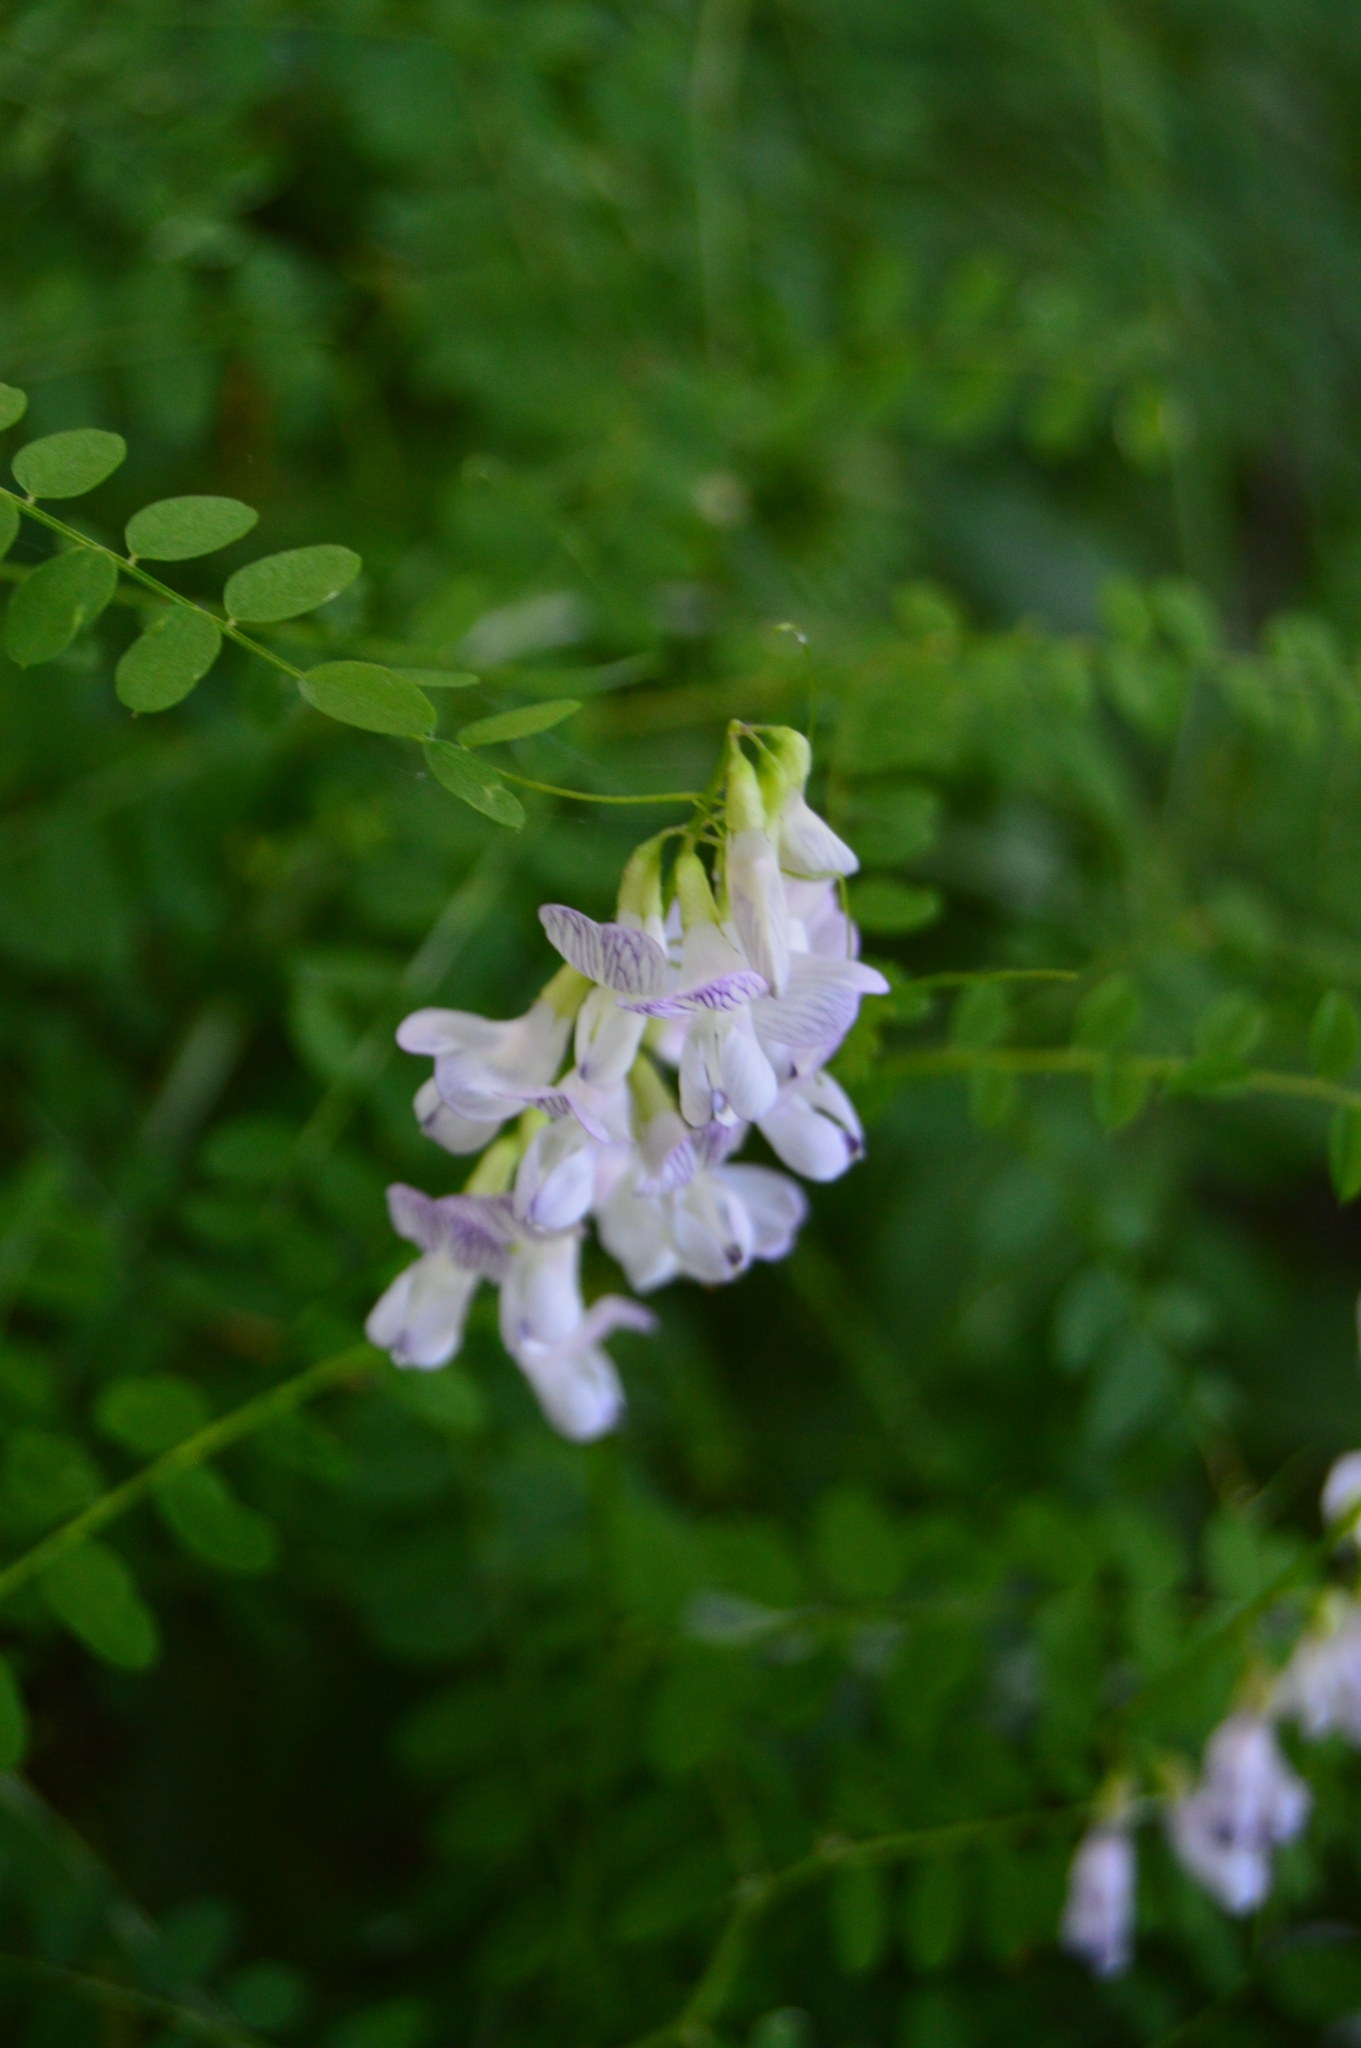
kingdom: Plantae
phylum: Tracheophyta
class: Magnoliopsida
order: Fabales
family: Fabaceae
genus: Vicia
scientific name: Vicia sylvatica
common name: Wood vetch
